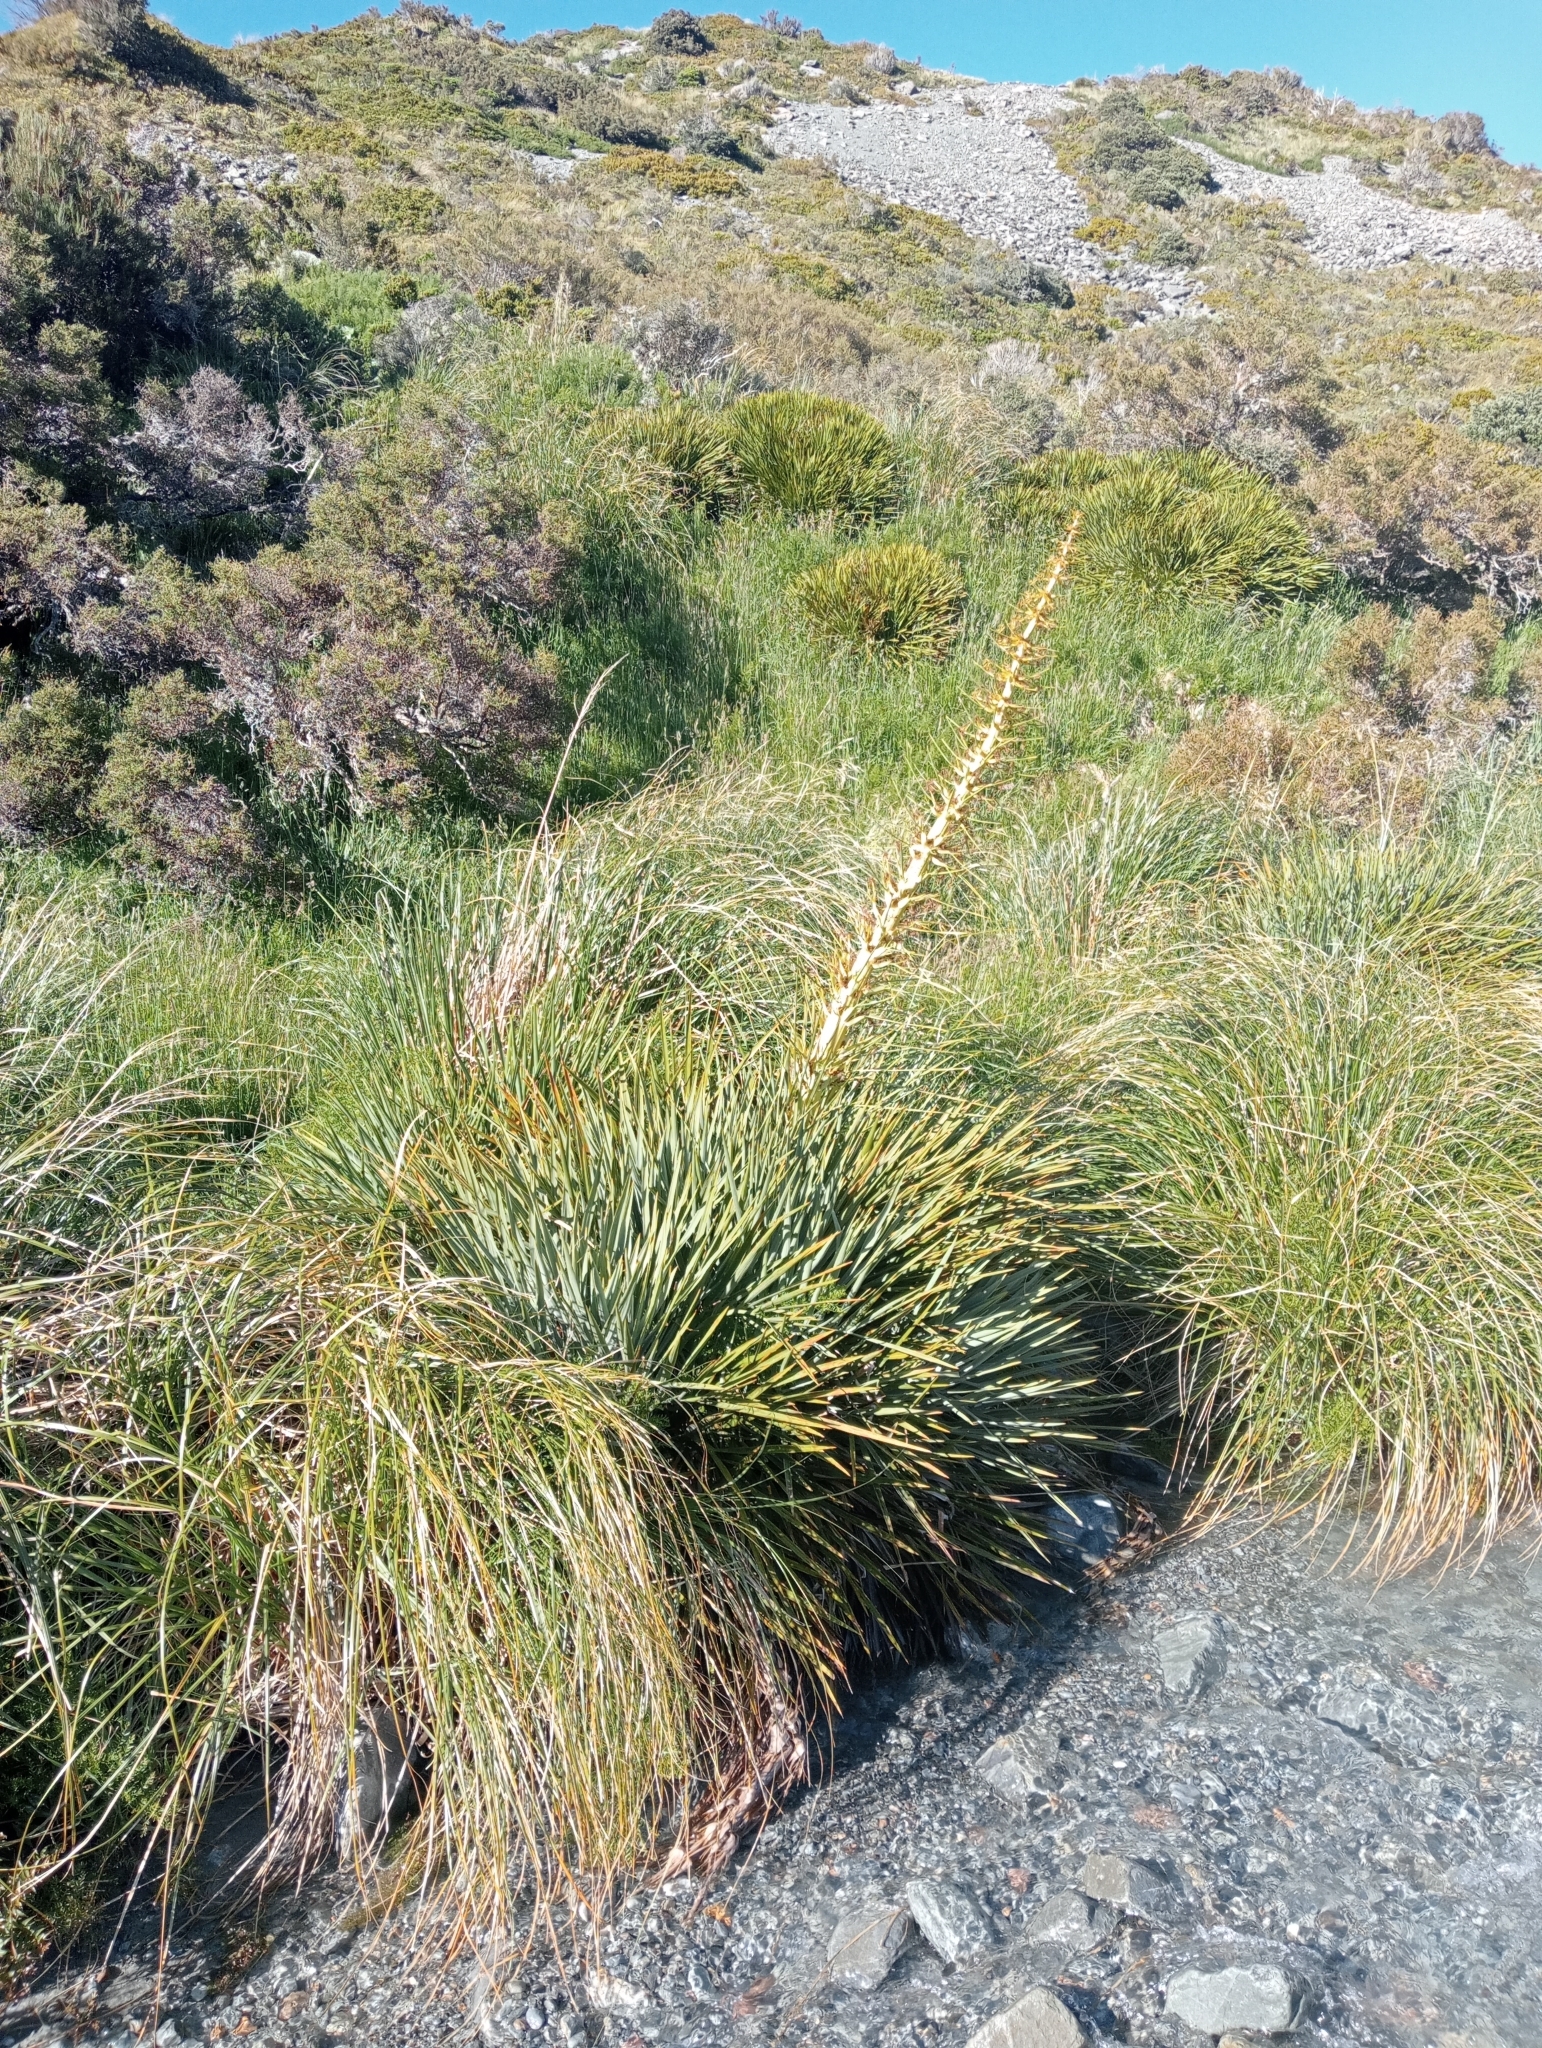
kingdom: Plantae
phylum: Tracheophyta
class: Magnoliopsida
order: Apiales
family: Apiaceae
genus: Aciphylla
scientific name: Aciphylla scott-thomsonii
